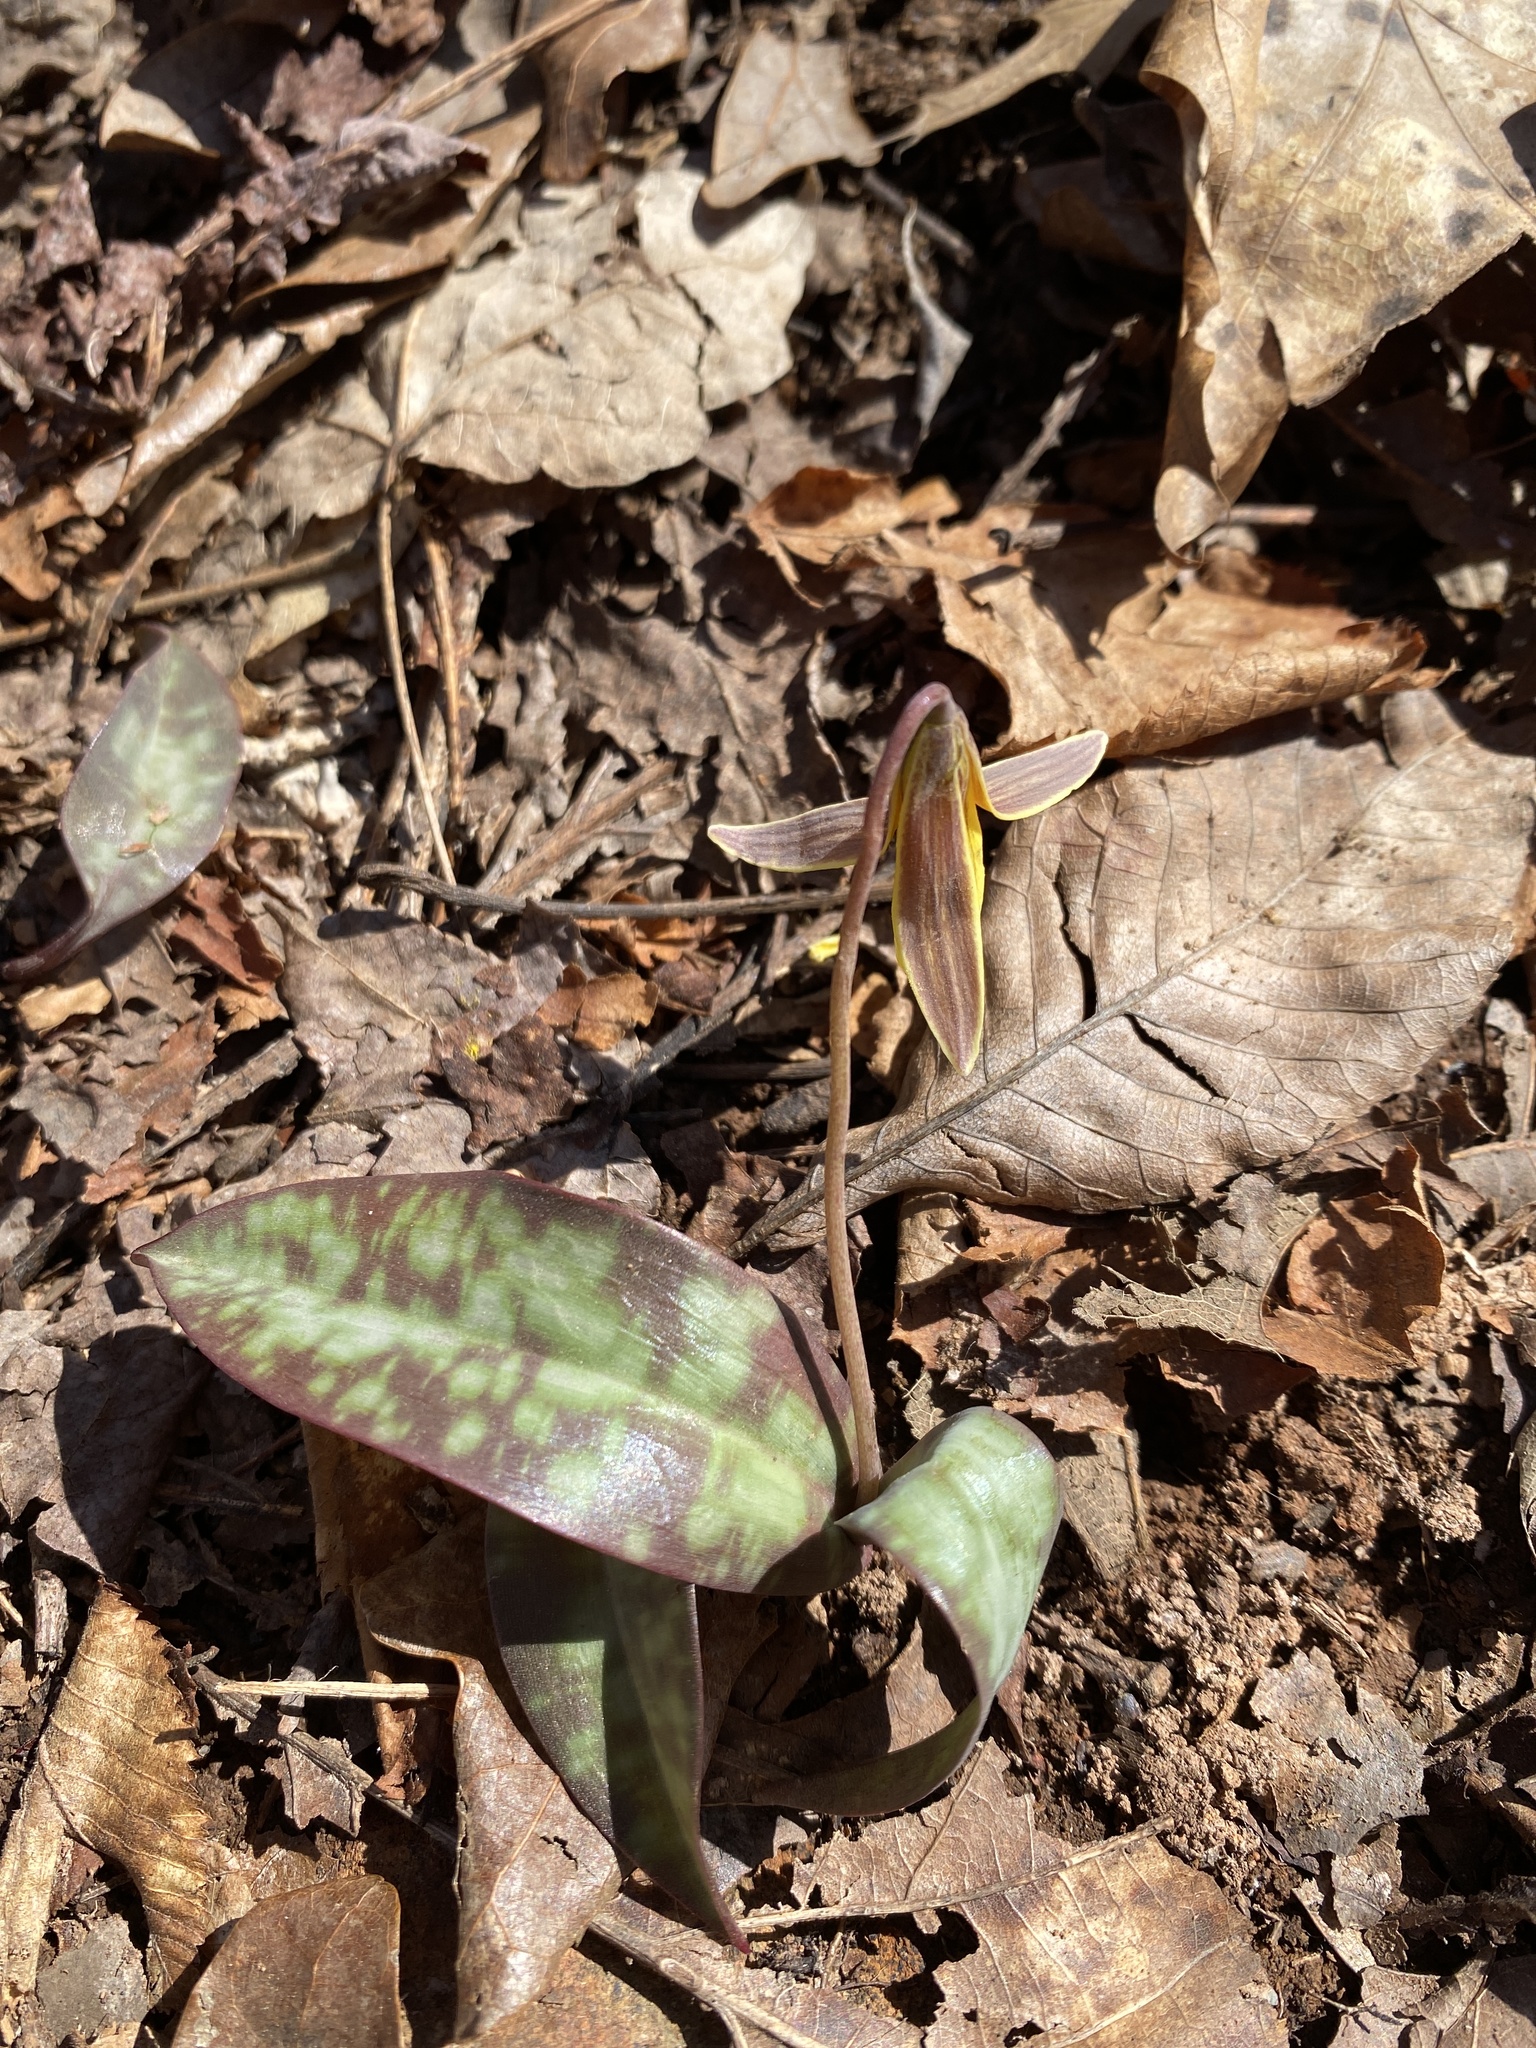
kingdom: Plantae
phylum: Tracheophyta
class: Liliopsida
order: Liliales
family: Liliaceae
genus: Erythronium
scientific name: Erythronium umbilicatum
